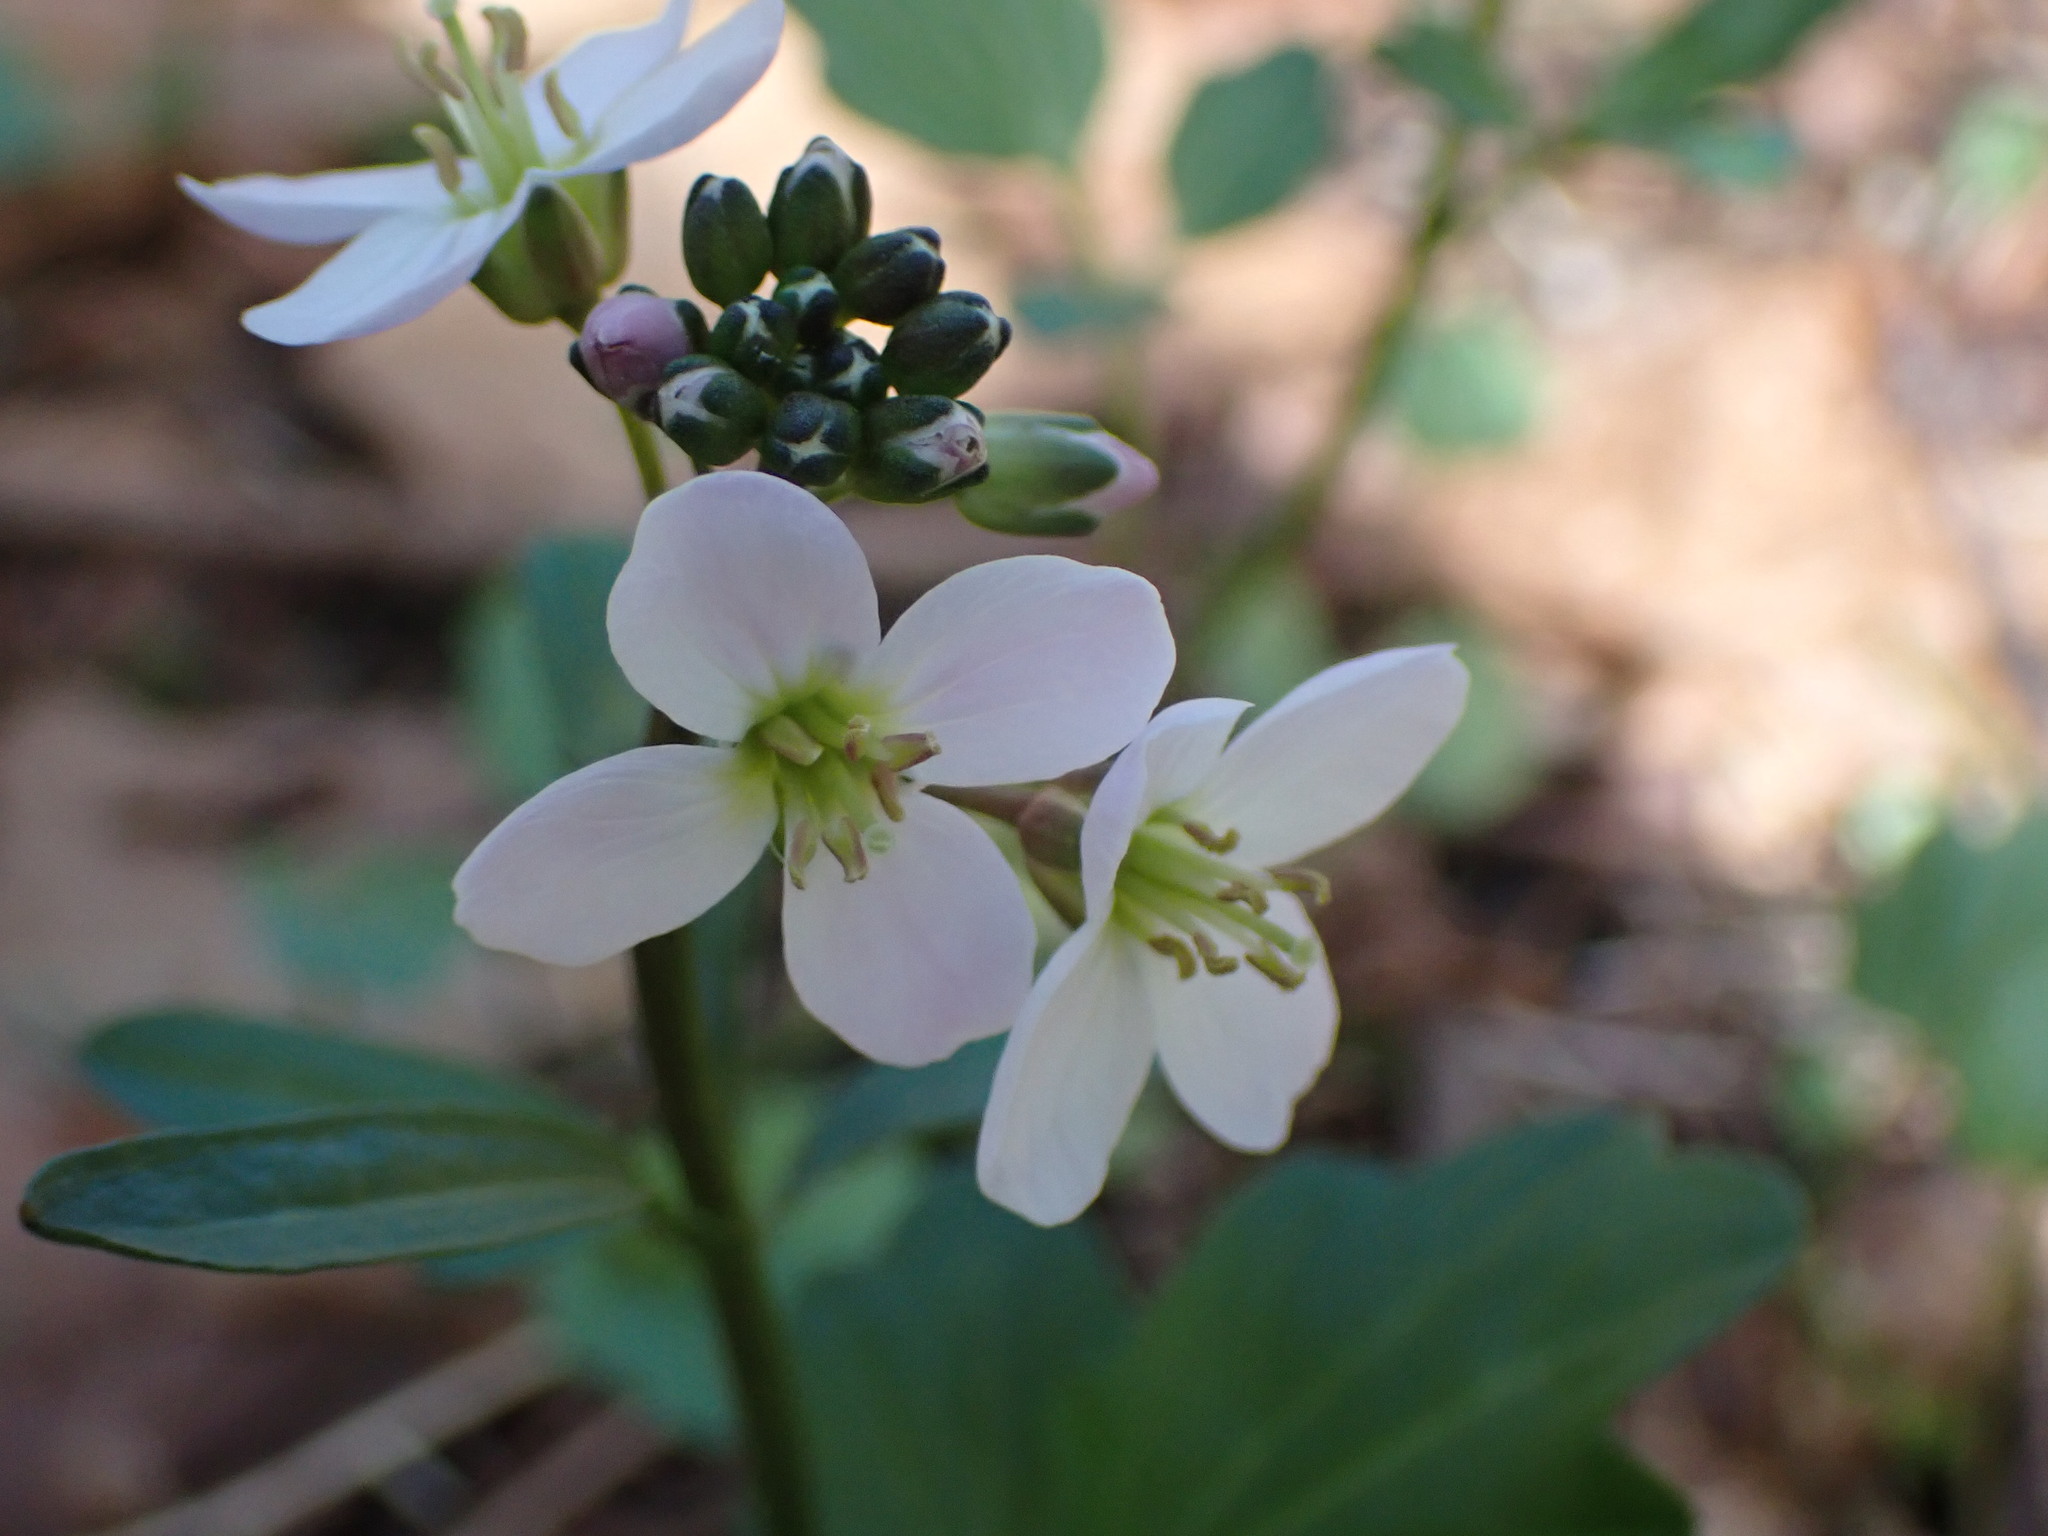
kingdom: Plantae
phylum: Tracheophyta
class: Magnoliopsida
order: Brassicales
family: Brassicaceae
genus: Cardamine
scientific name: Cardamine nuttallii
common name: Nuttall's toothwort
